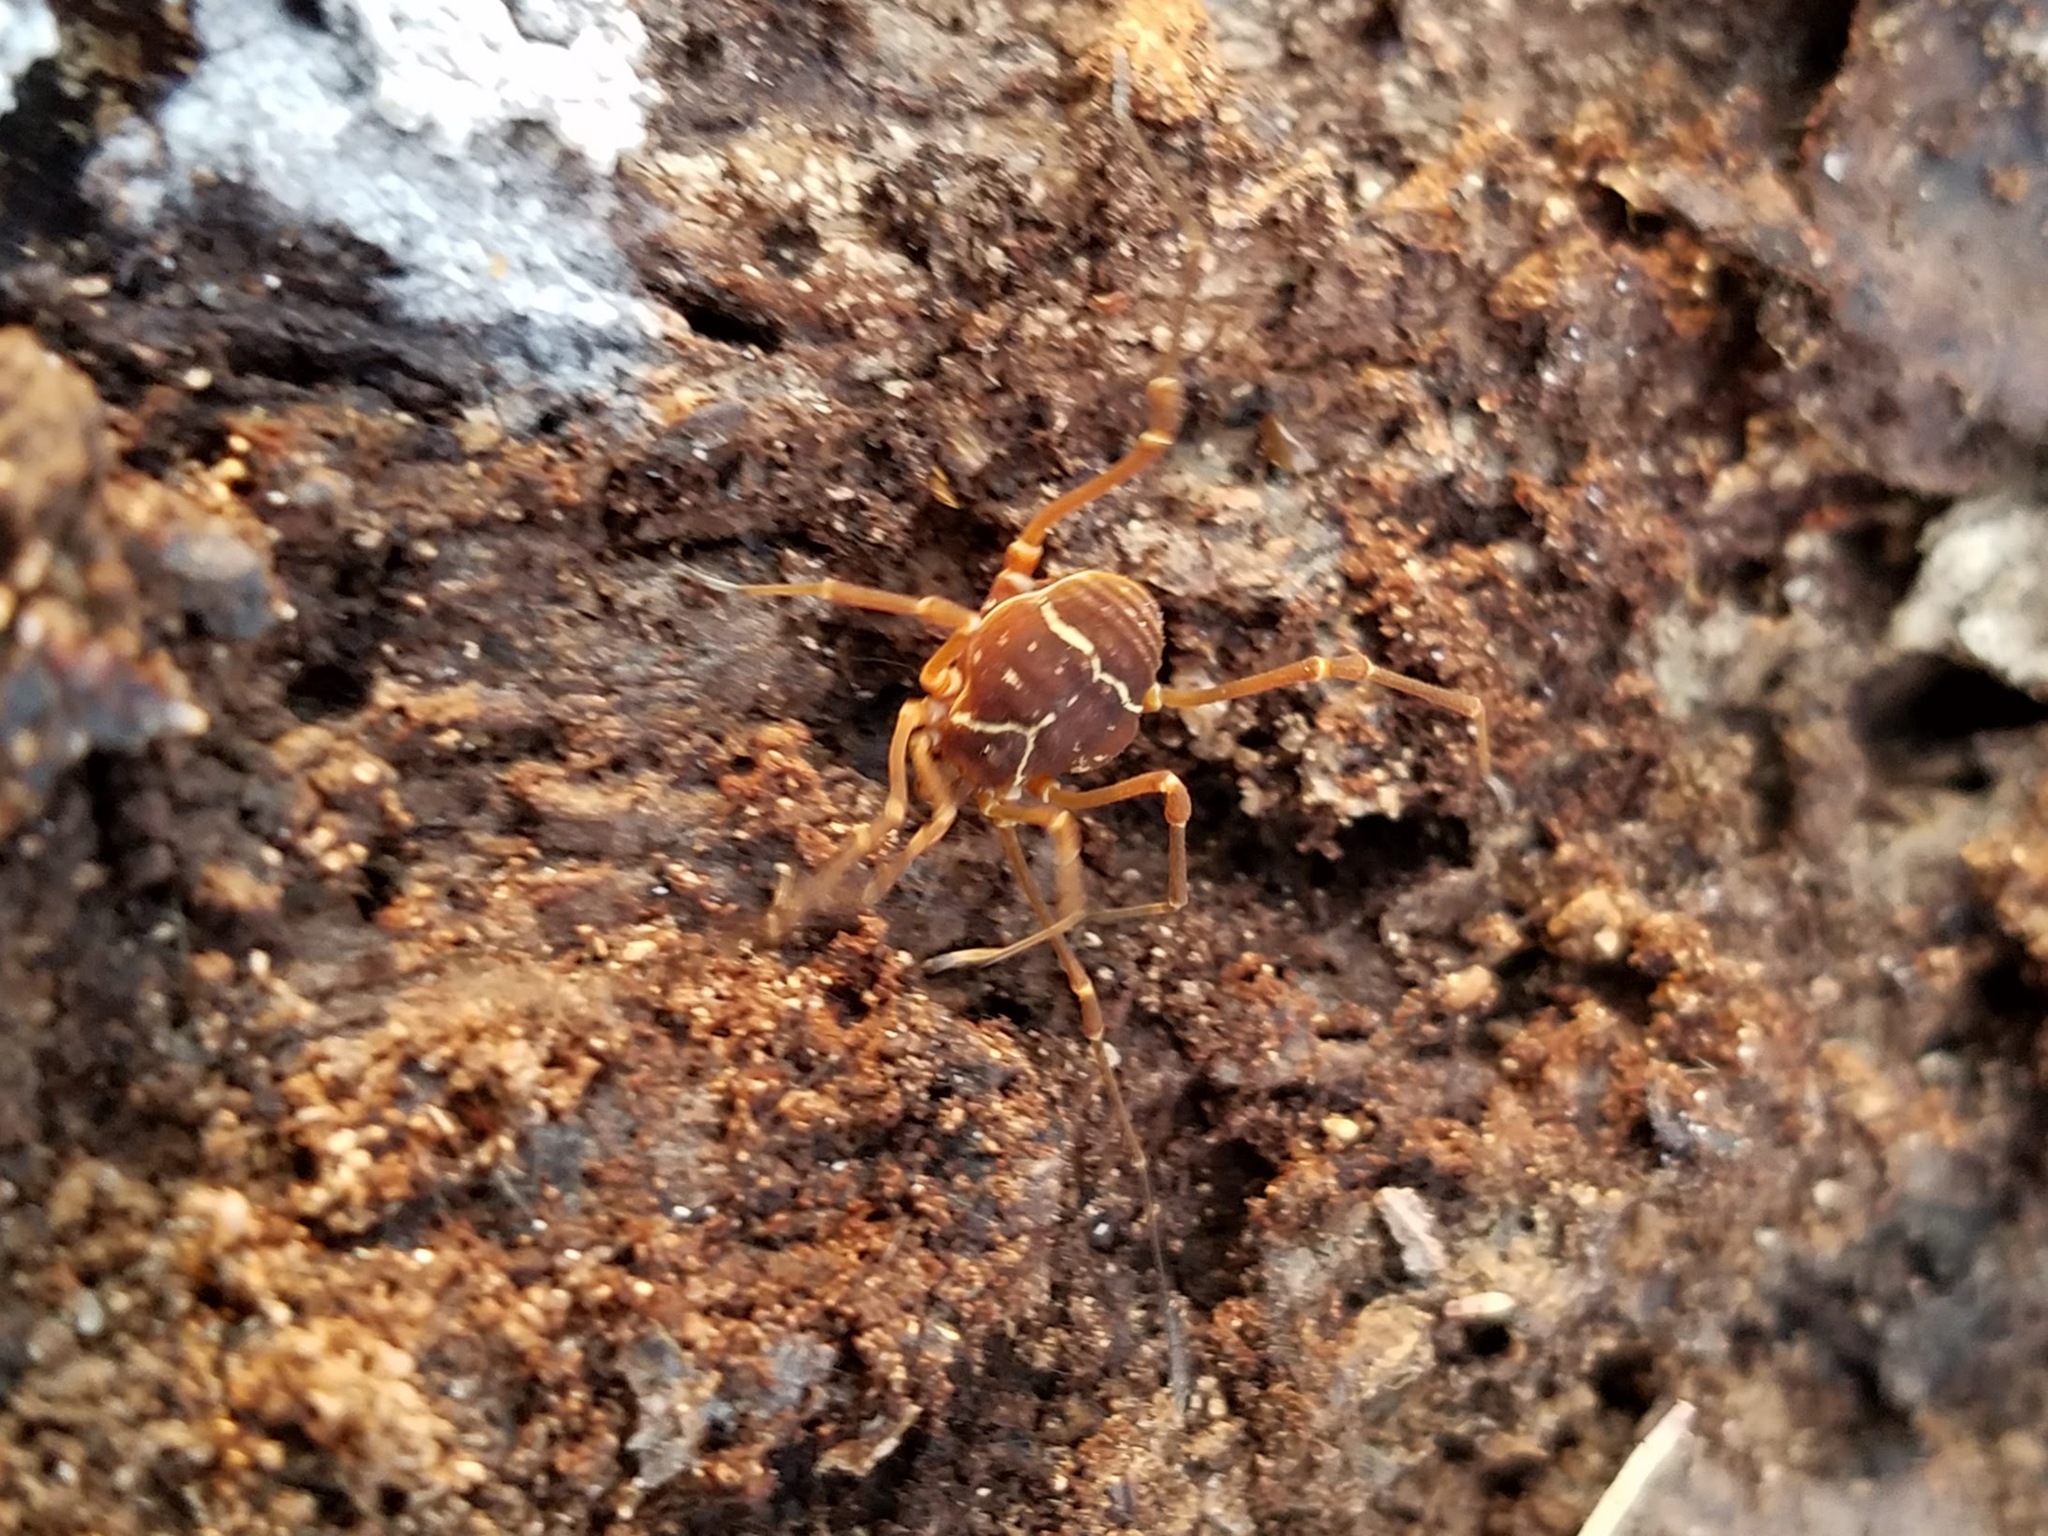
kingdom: Animalia
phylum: Arthropoda
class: Arachnida
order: Opiliones
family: Cosmetidae
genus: Libitioides
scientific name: Libitioides sayi
